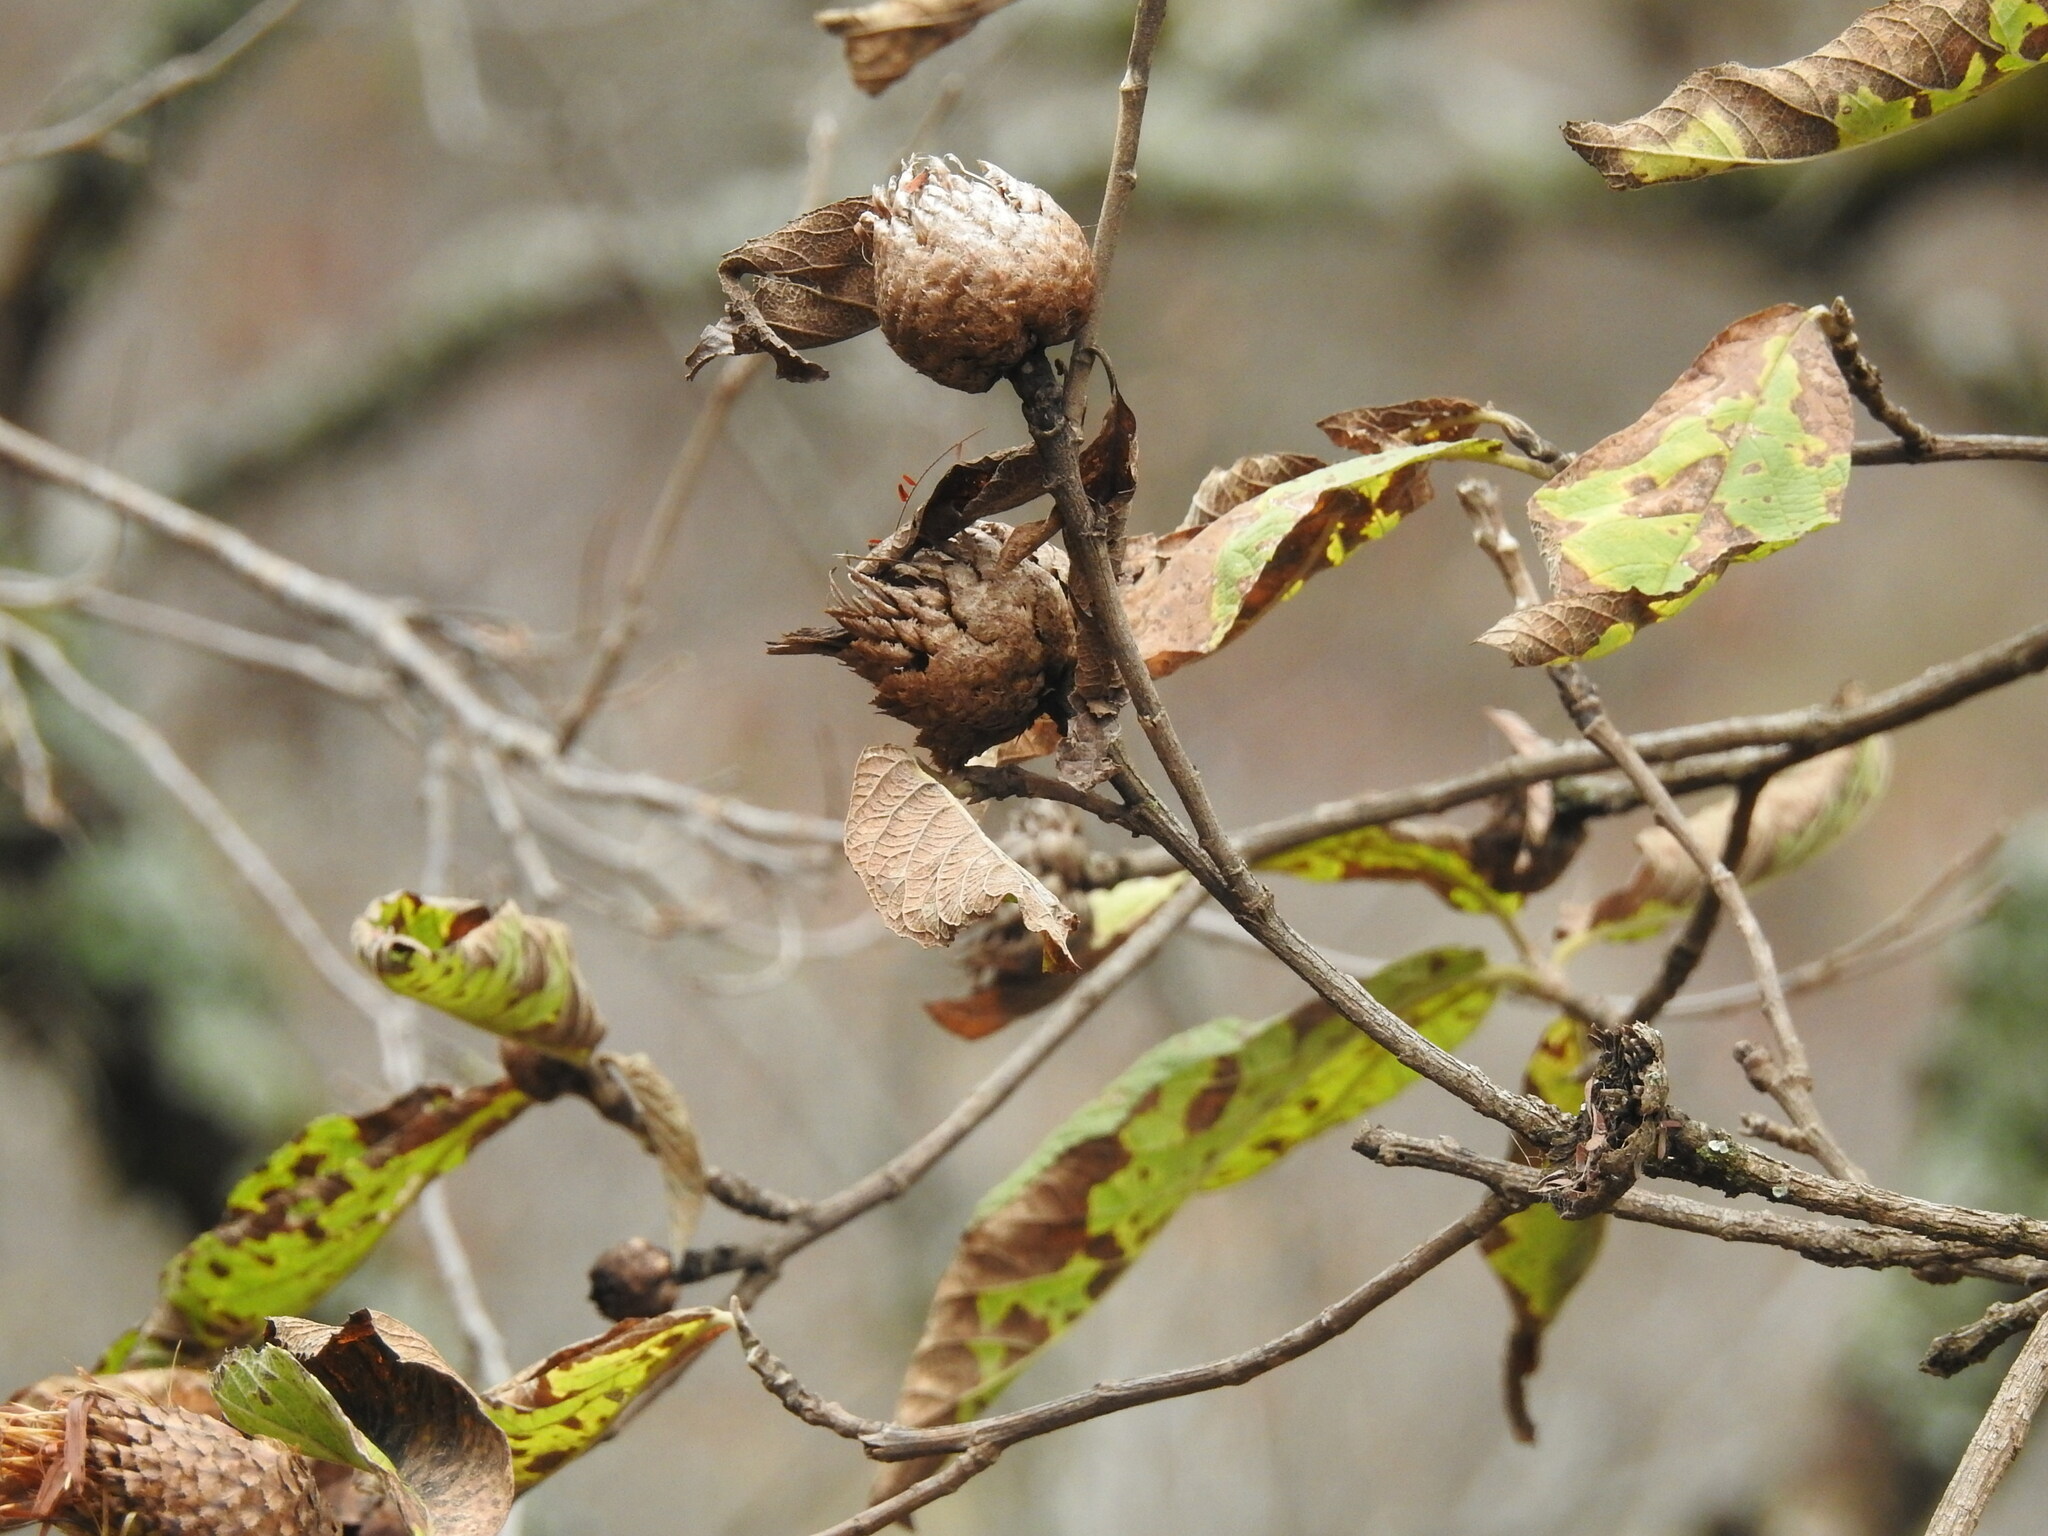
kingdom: Plantae
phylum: Tracheophyta
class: Magnoliopsida
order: Asterales
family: Asteraceae
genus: Cnicothamnus
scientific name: Cnicothamnus lorentzii
